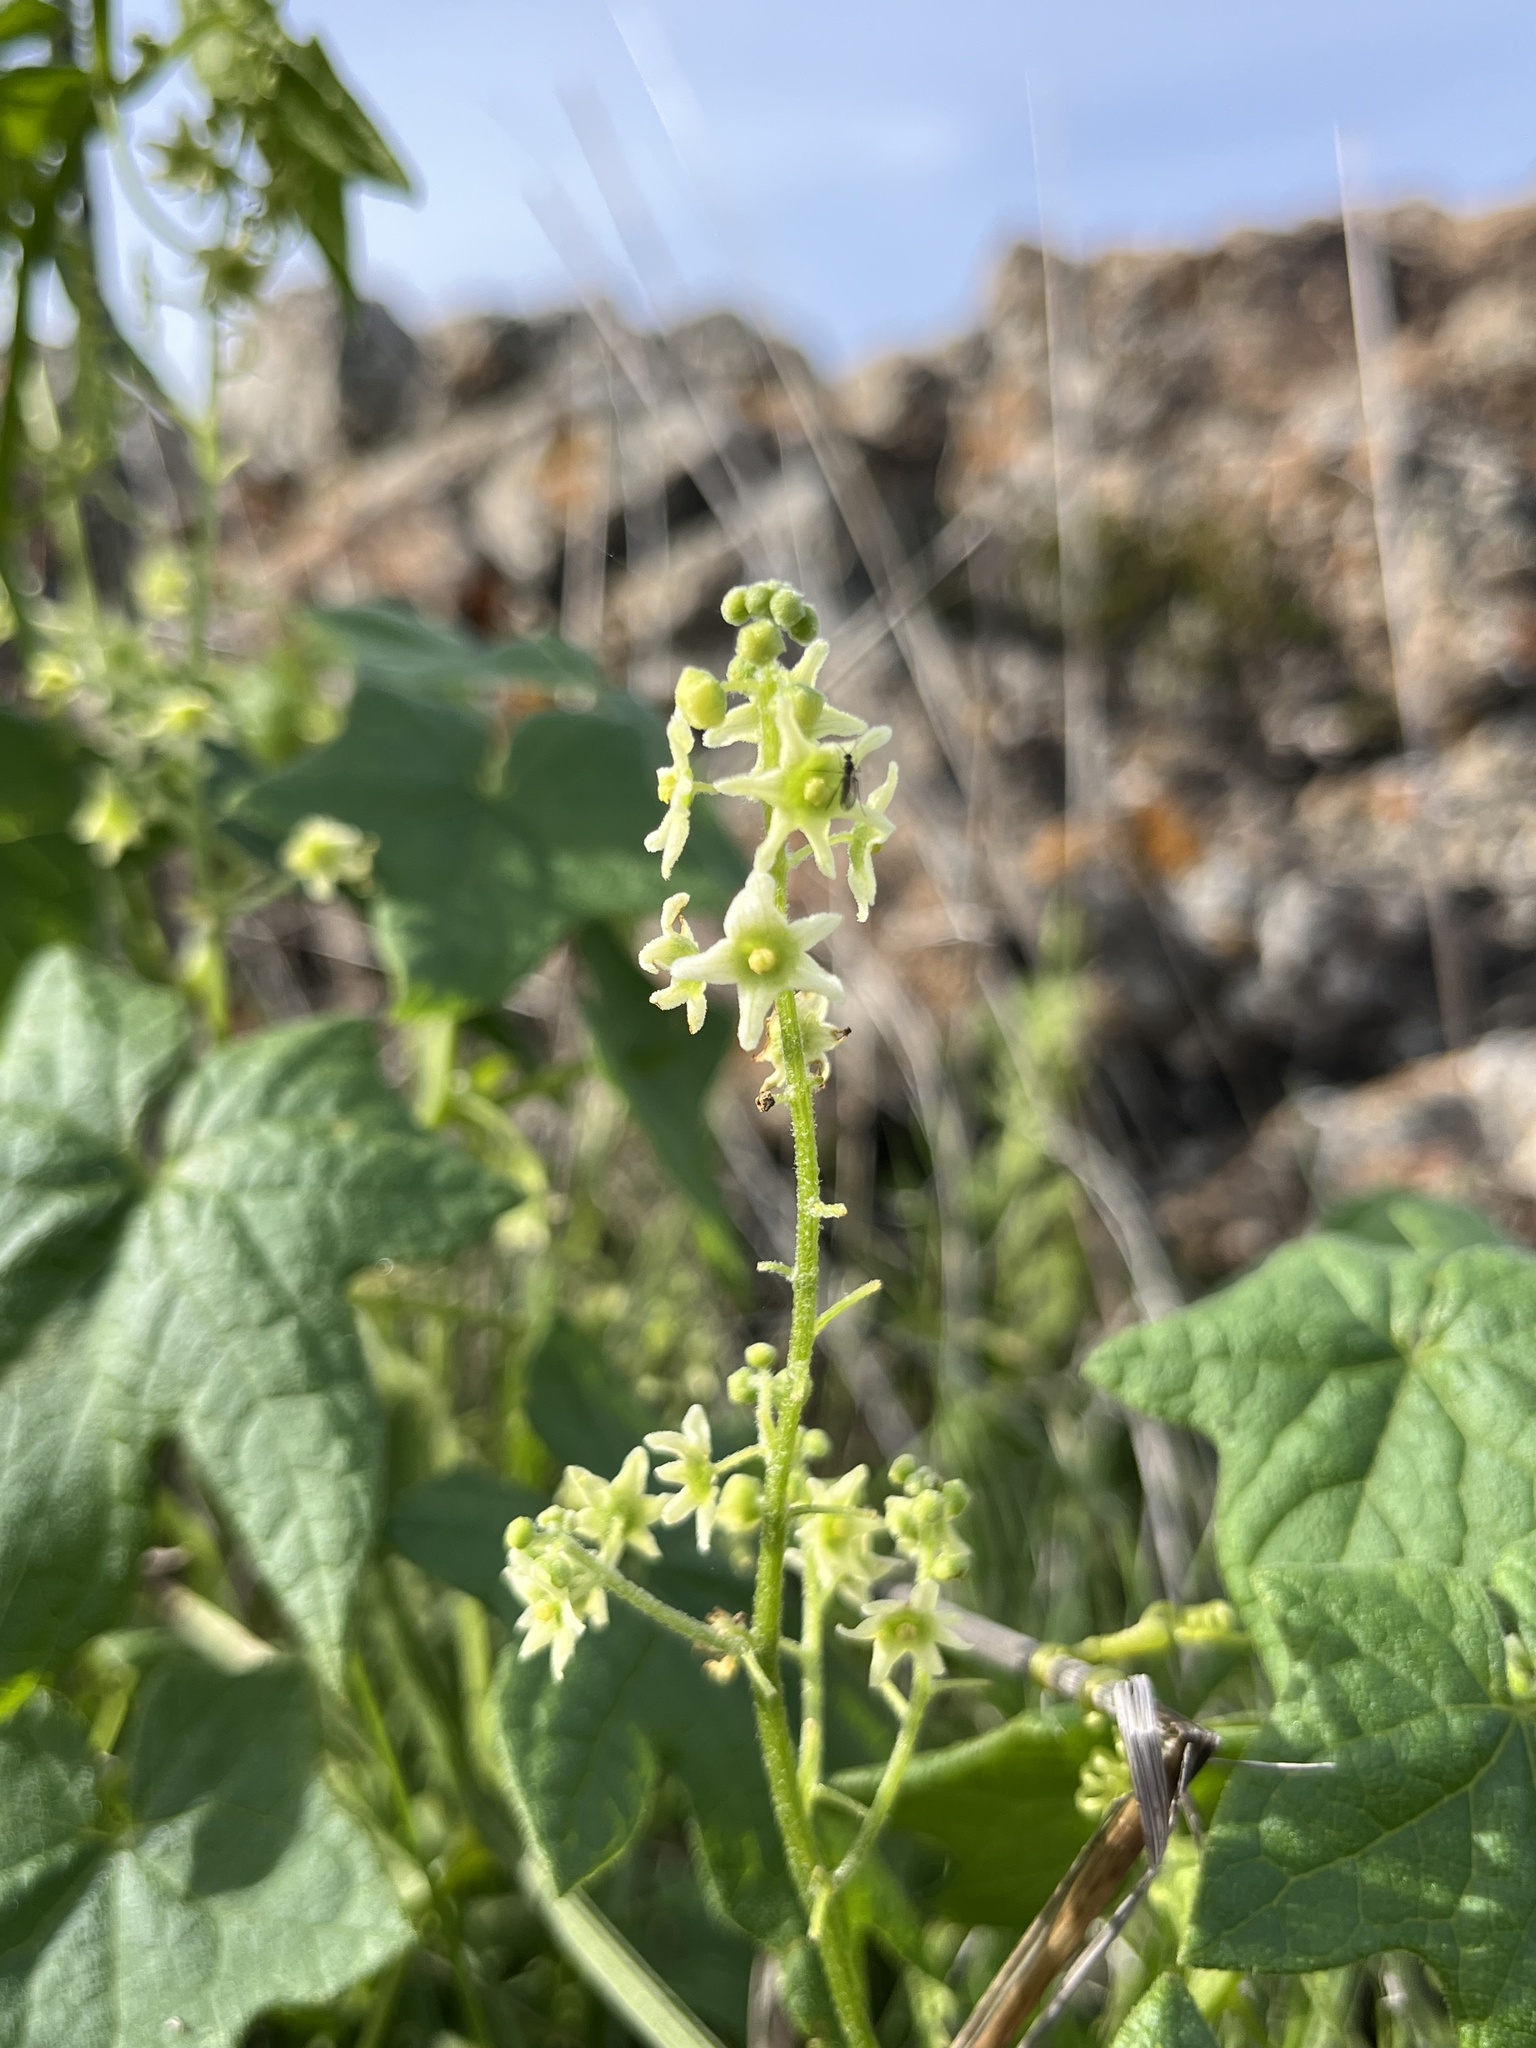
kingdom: Plantae
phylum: Tracheophyta
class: Magnoliopsida
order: Cucurbitales
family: Cucurbitaceae
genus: Marah
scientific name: Marah fabacea
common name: California manroot
